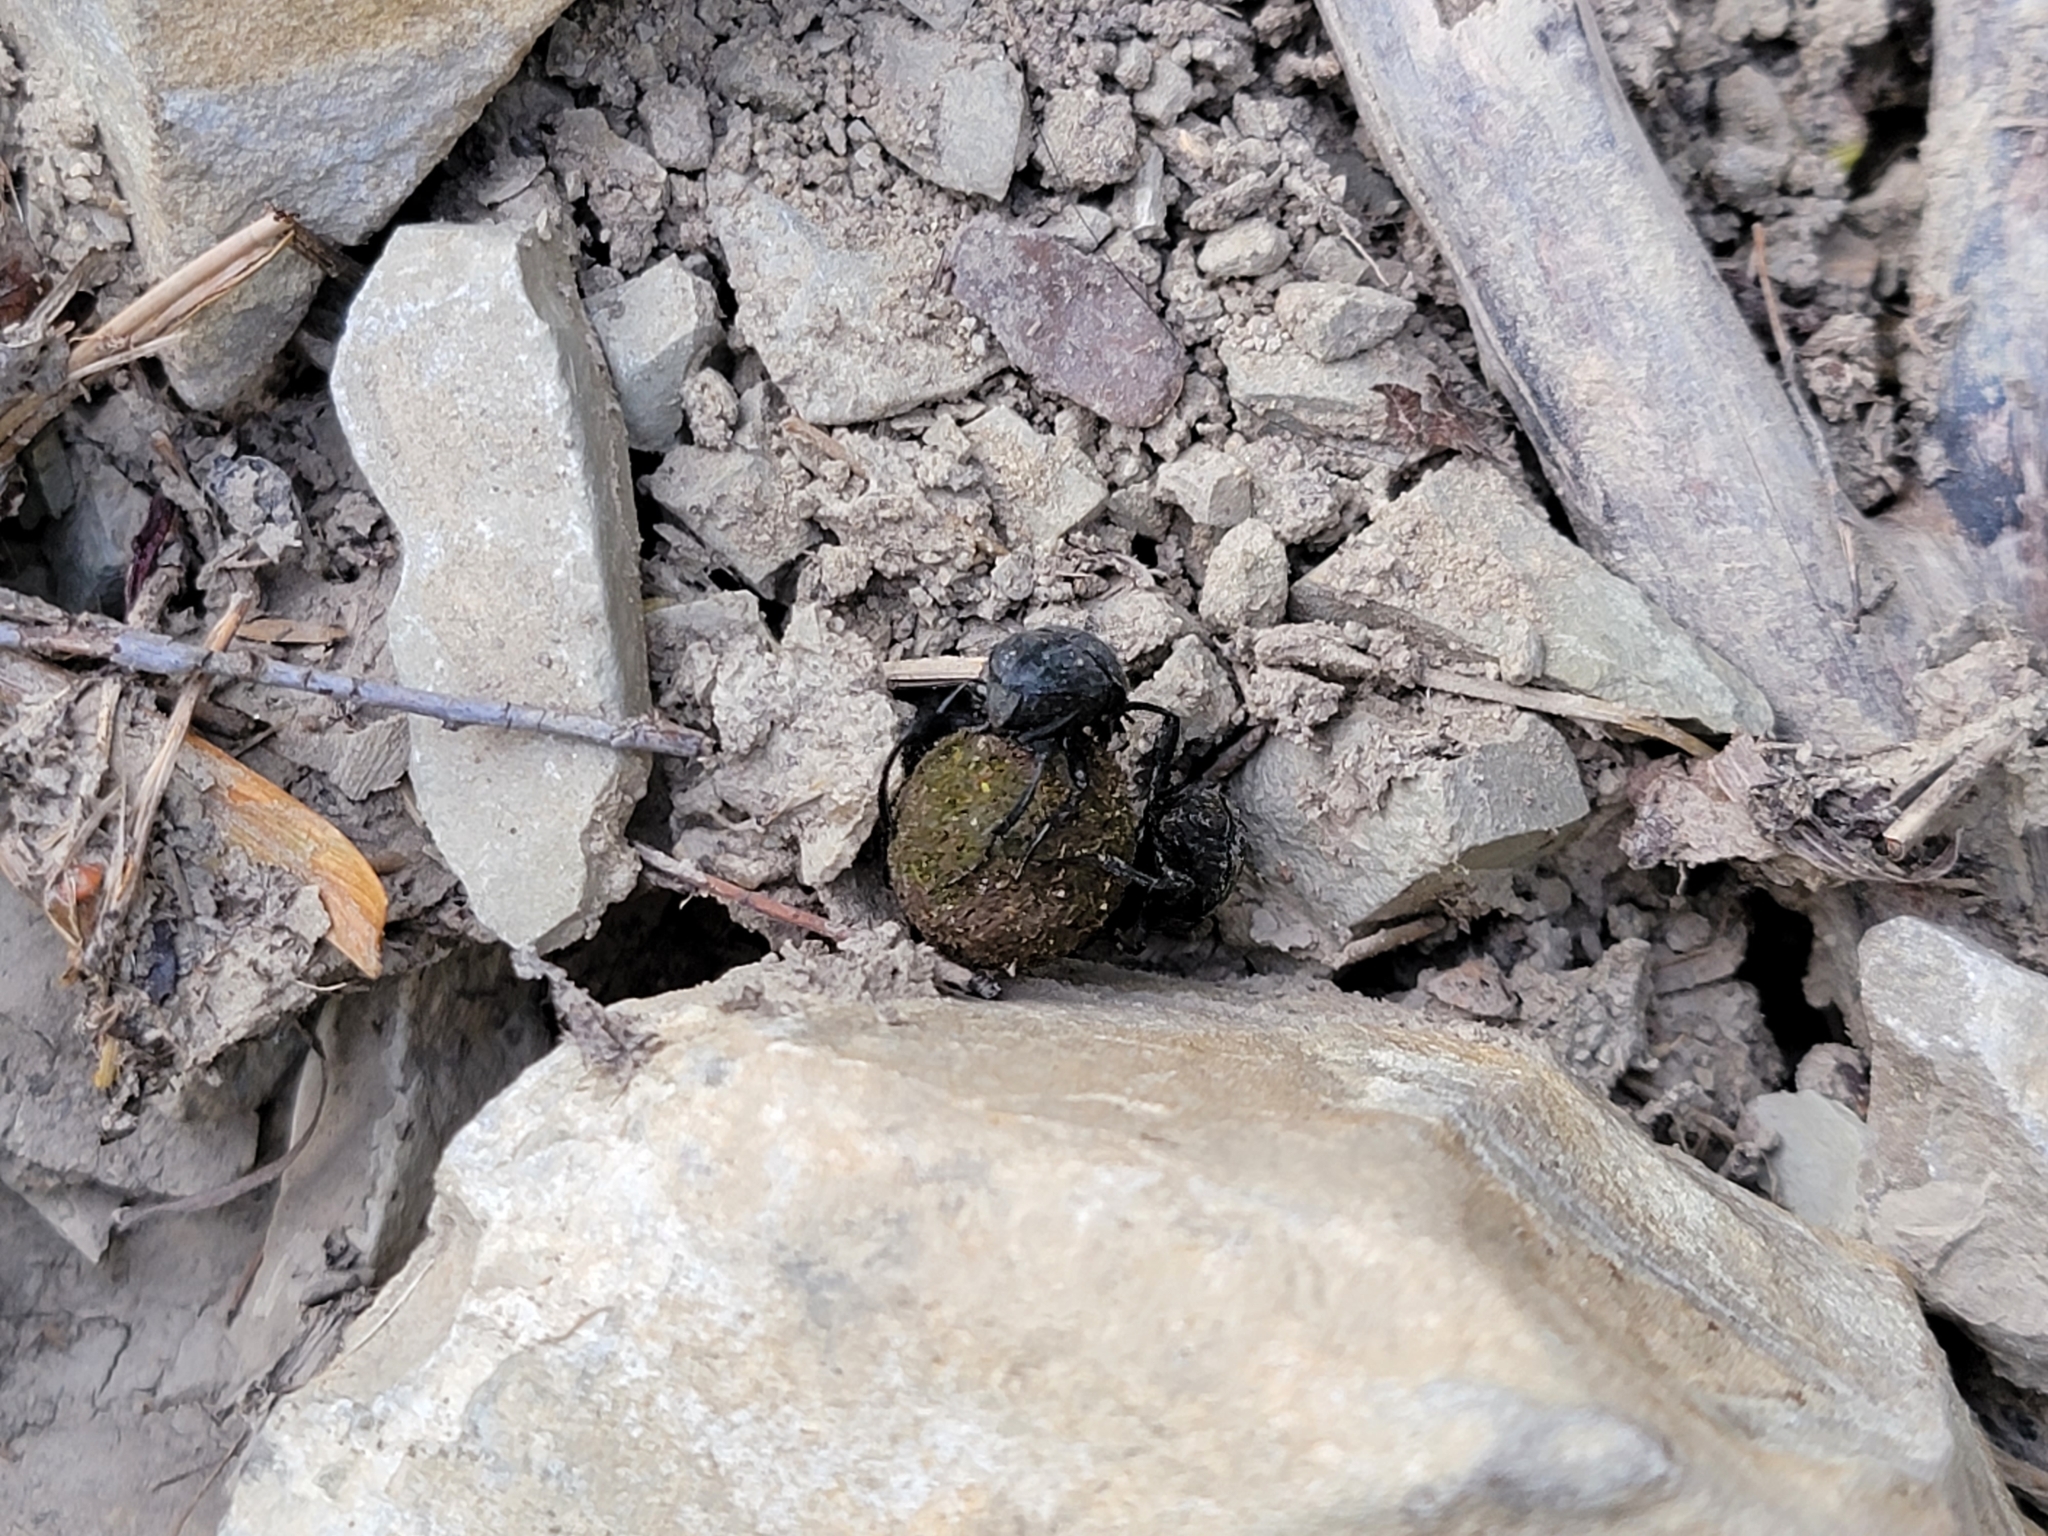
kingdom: Animalia
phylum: Arthropoda
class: Insecta
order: Coleoptera
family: Scarabaeidae
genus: Sisyphus
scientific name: Sisyphus schaefferi
